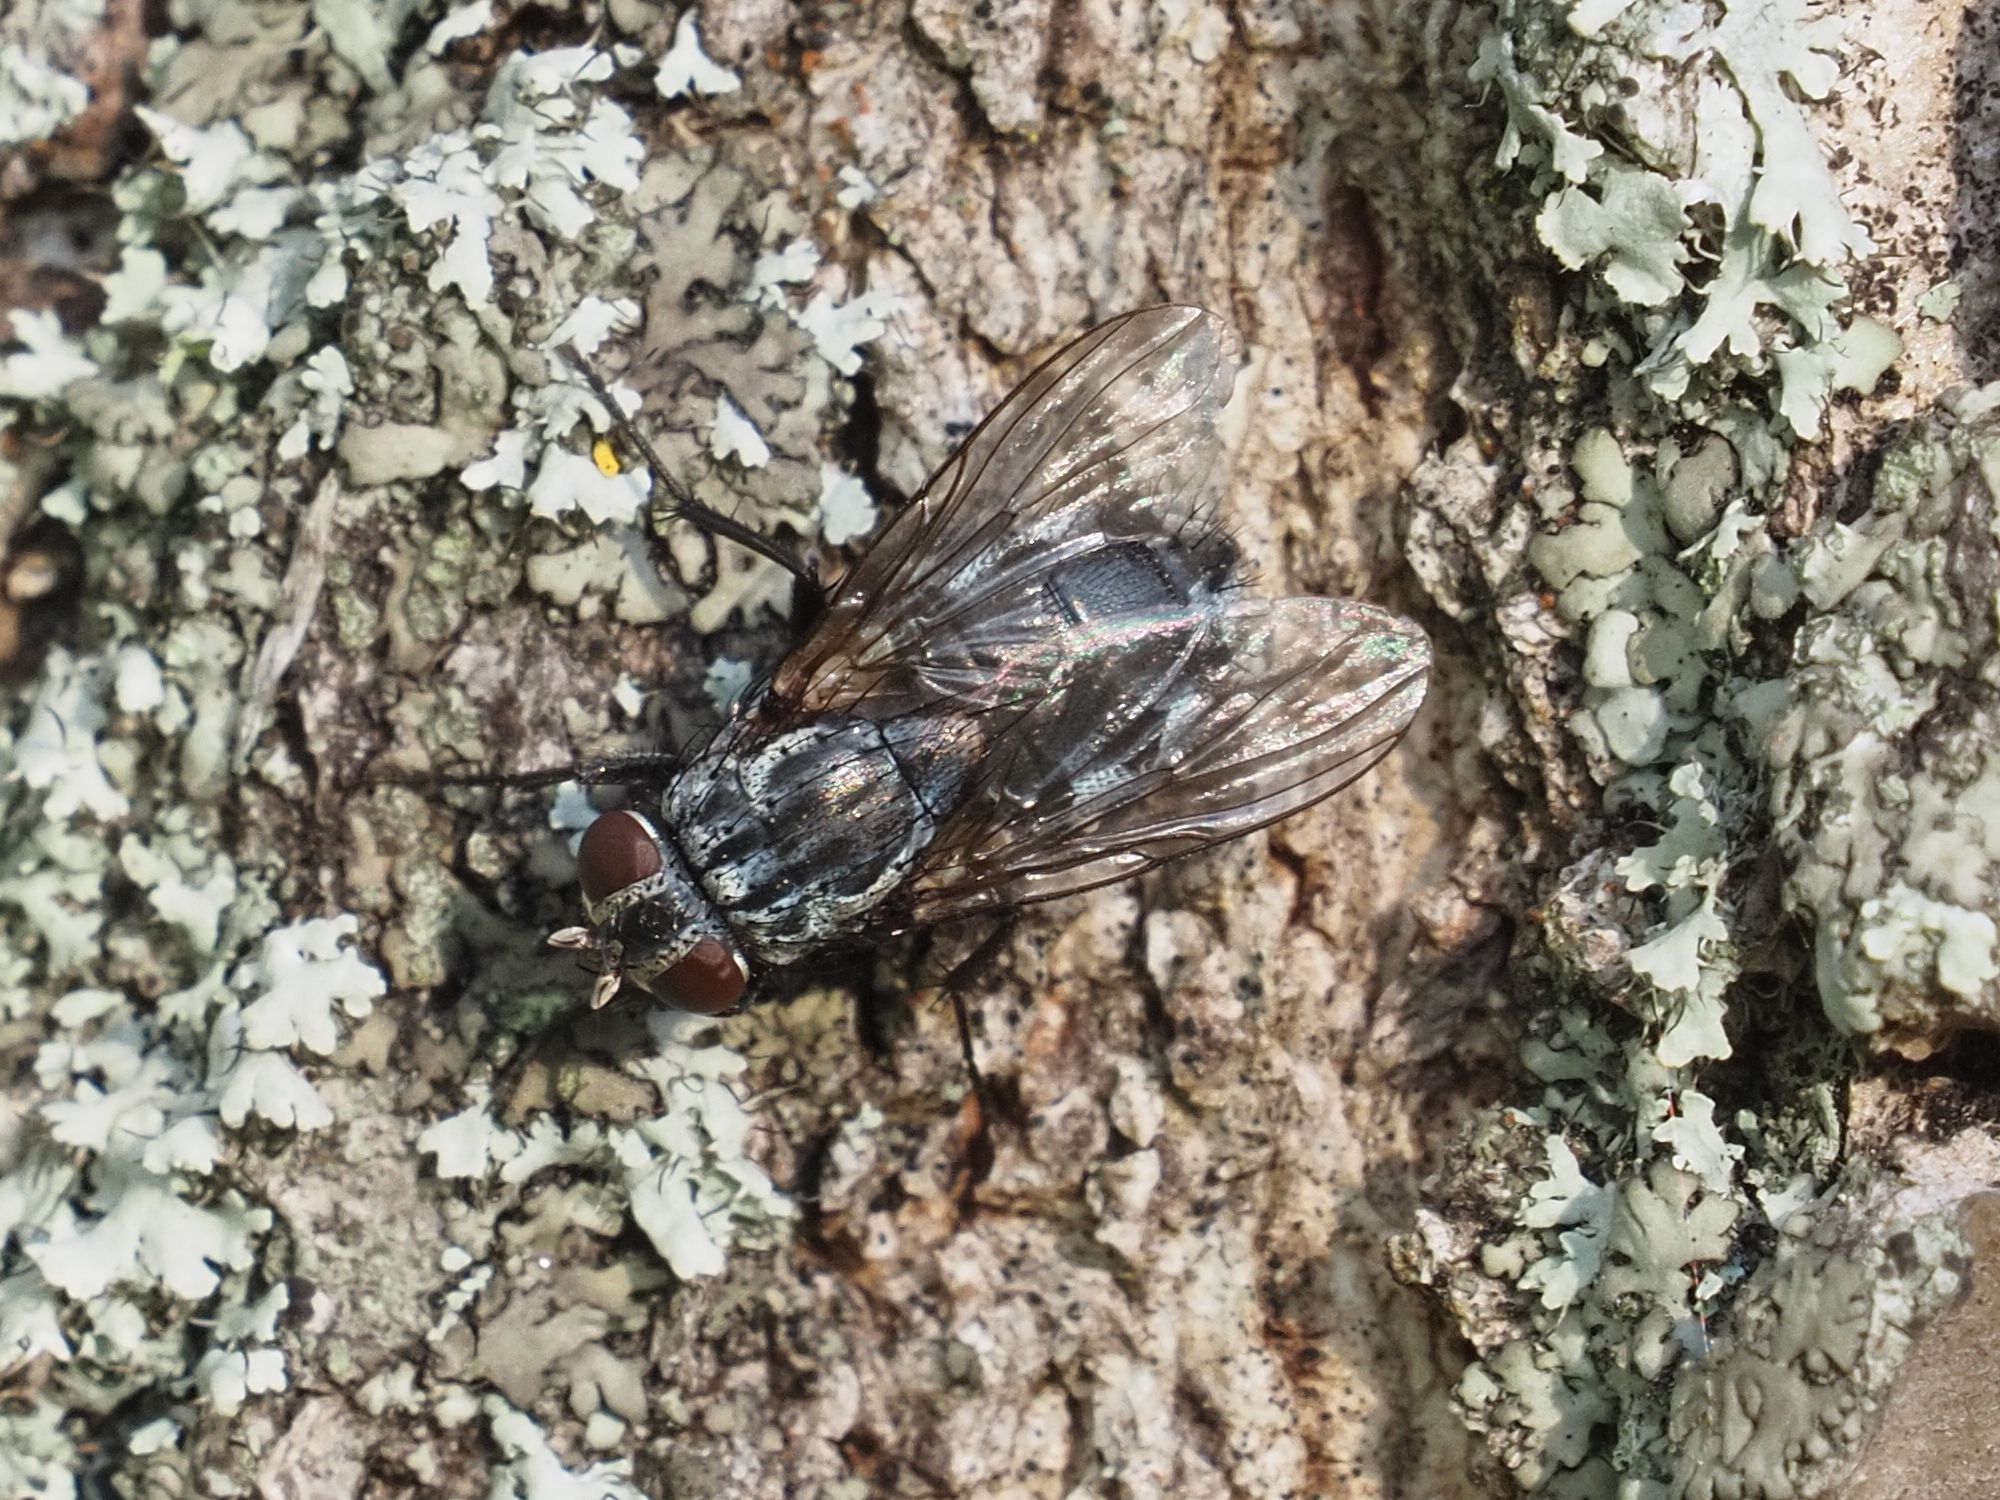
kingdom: Animalia
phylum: Arthropoda
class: Insecta
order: Diptera
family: Muscidae
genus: Muscina
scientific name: Muscina prolapsa
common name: Muscoid fly
